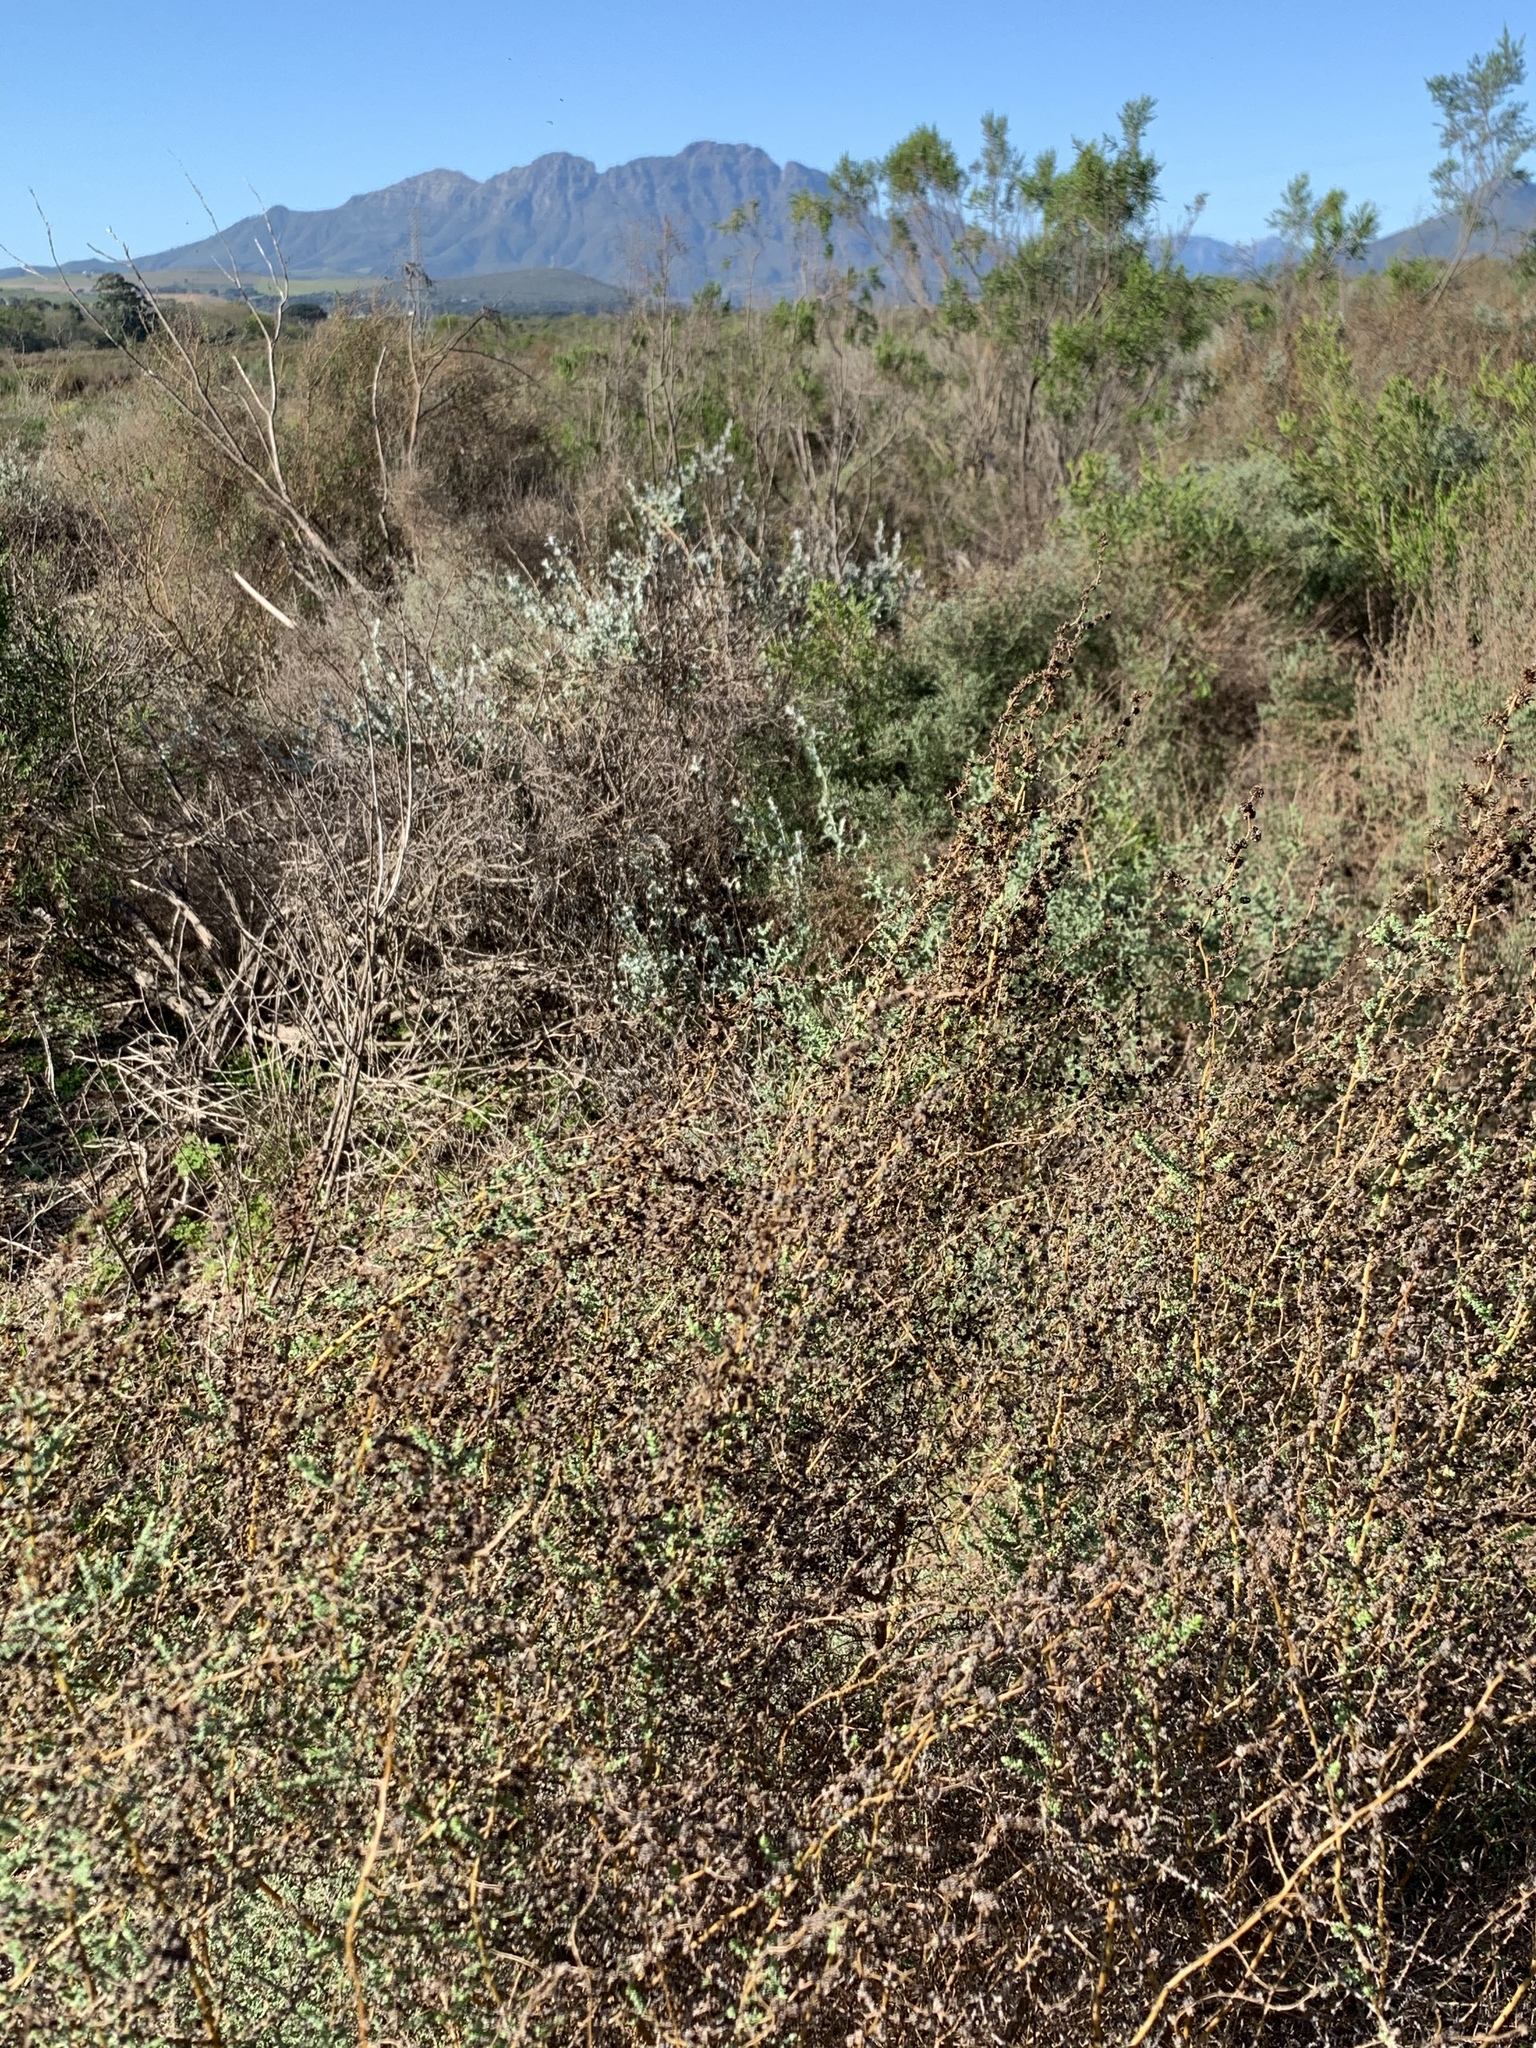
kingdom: Plantae
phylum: Tracheophyta
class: Magnoliopsida
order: Asterales
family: Asteraceae
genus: Seriphium
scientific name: Seriphium plumosum
